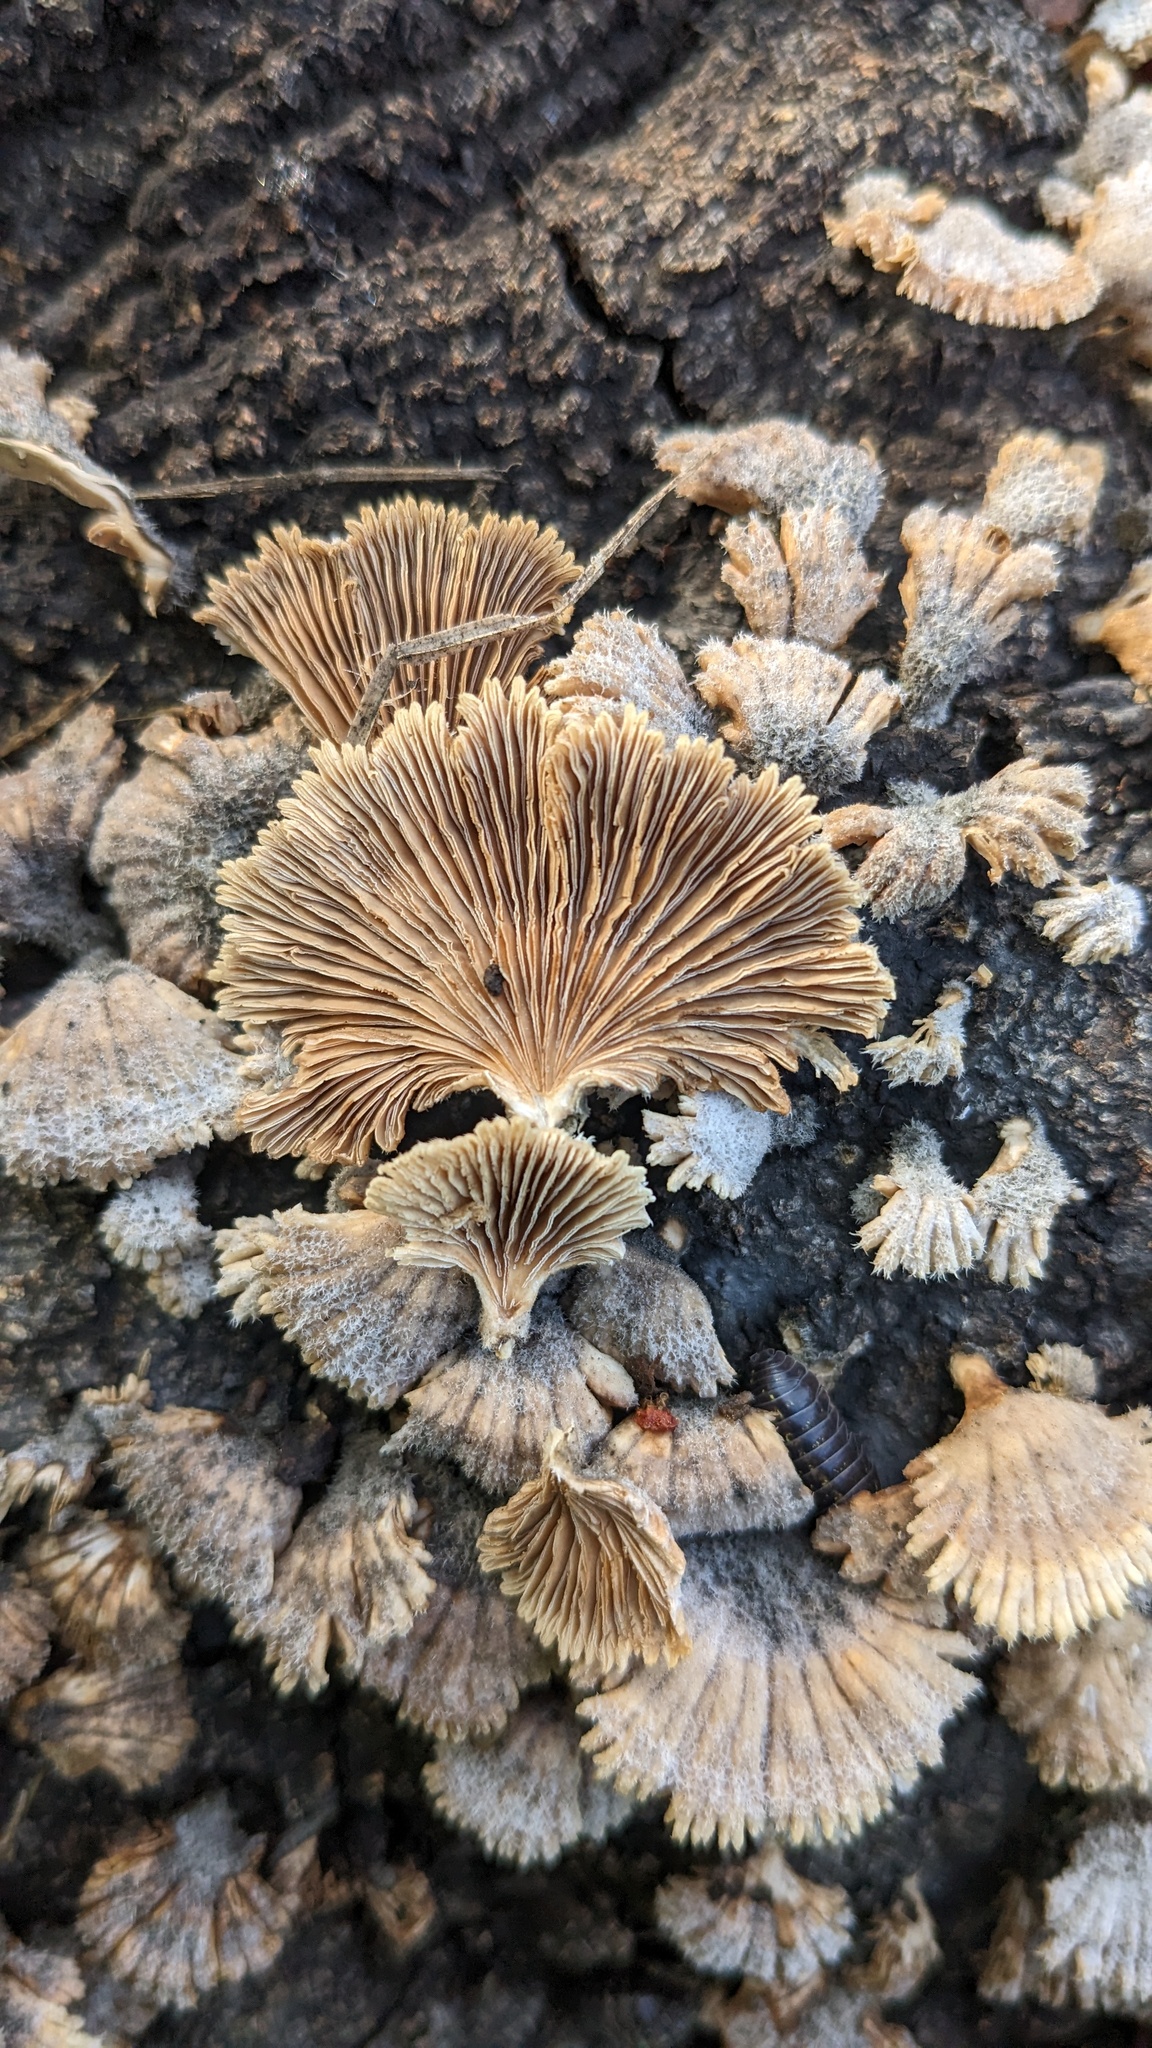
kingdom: Fungi
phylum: Basidiomycota
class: Agaricomycetes
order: Agaricales
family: Schizophyllaceae
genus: Schizophyllum
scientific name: Schizophyllum commune
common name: Common porecrust
